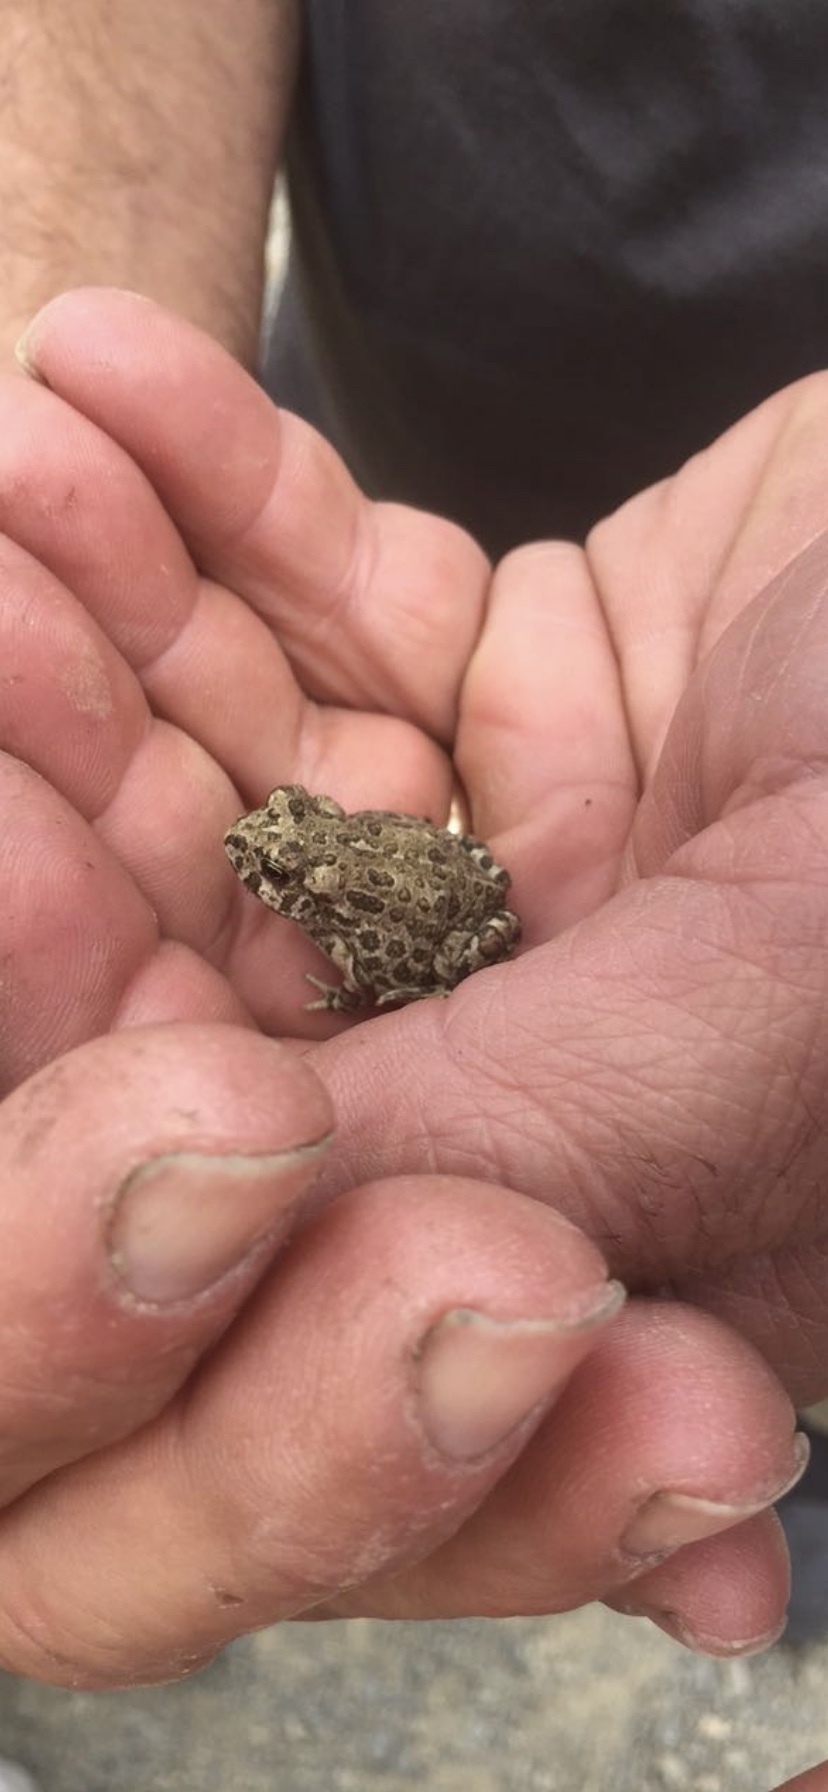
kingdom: Animalia
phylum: Chordata
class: Amphibia
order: Anura
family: Bufonidae
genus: Anaxyrus
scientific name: Anaxyrus boreas
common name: Western toad
